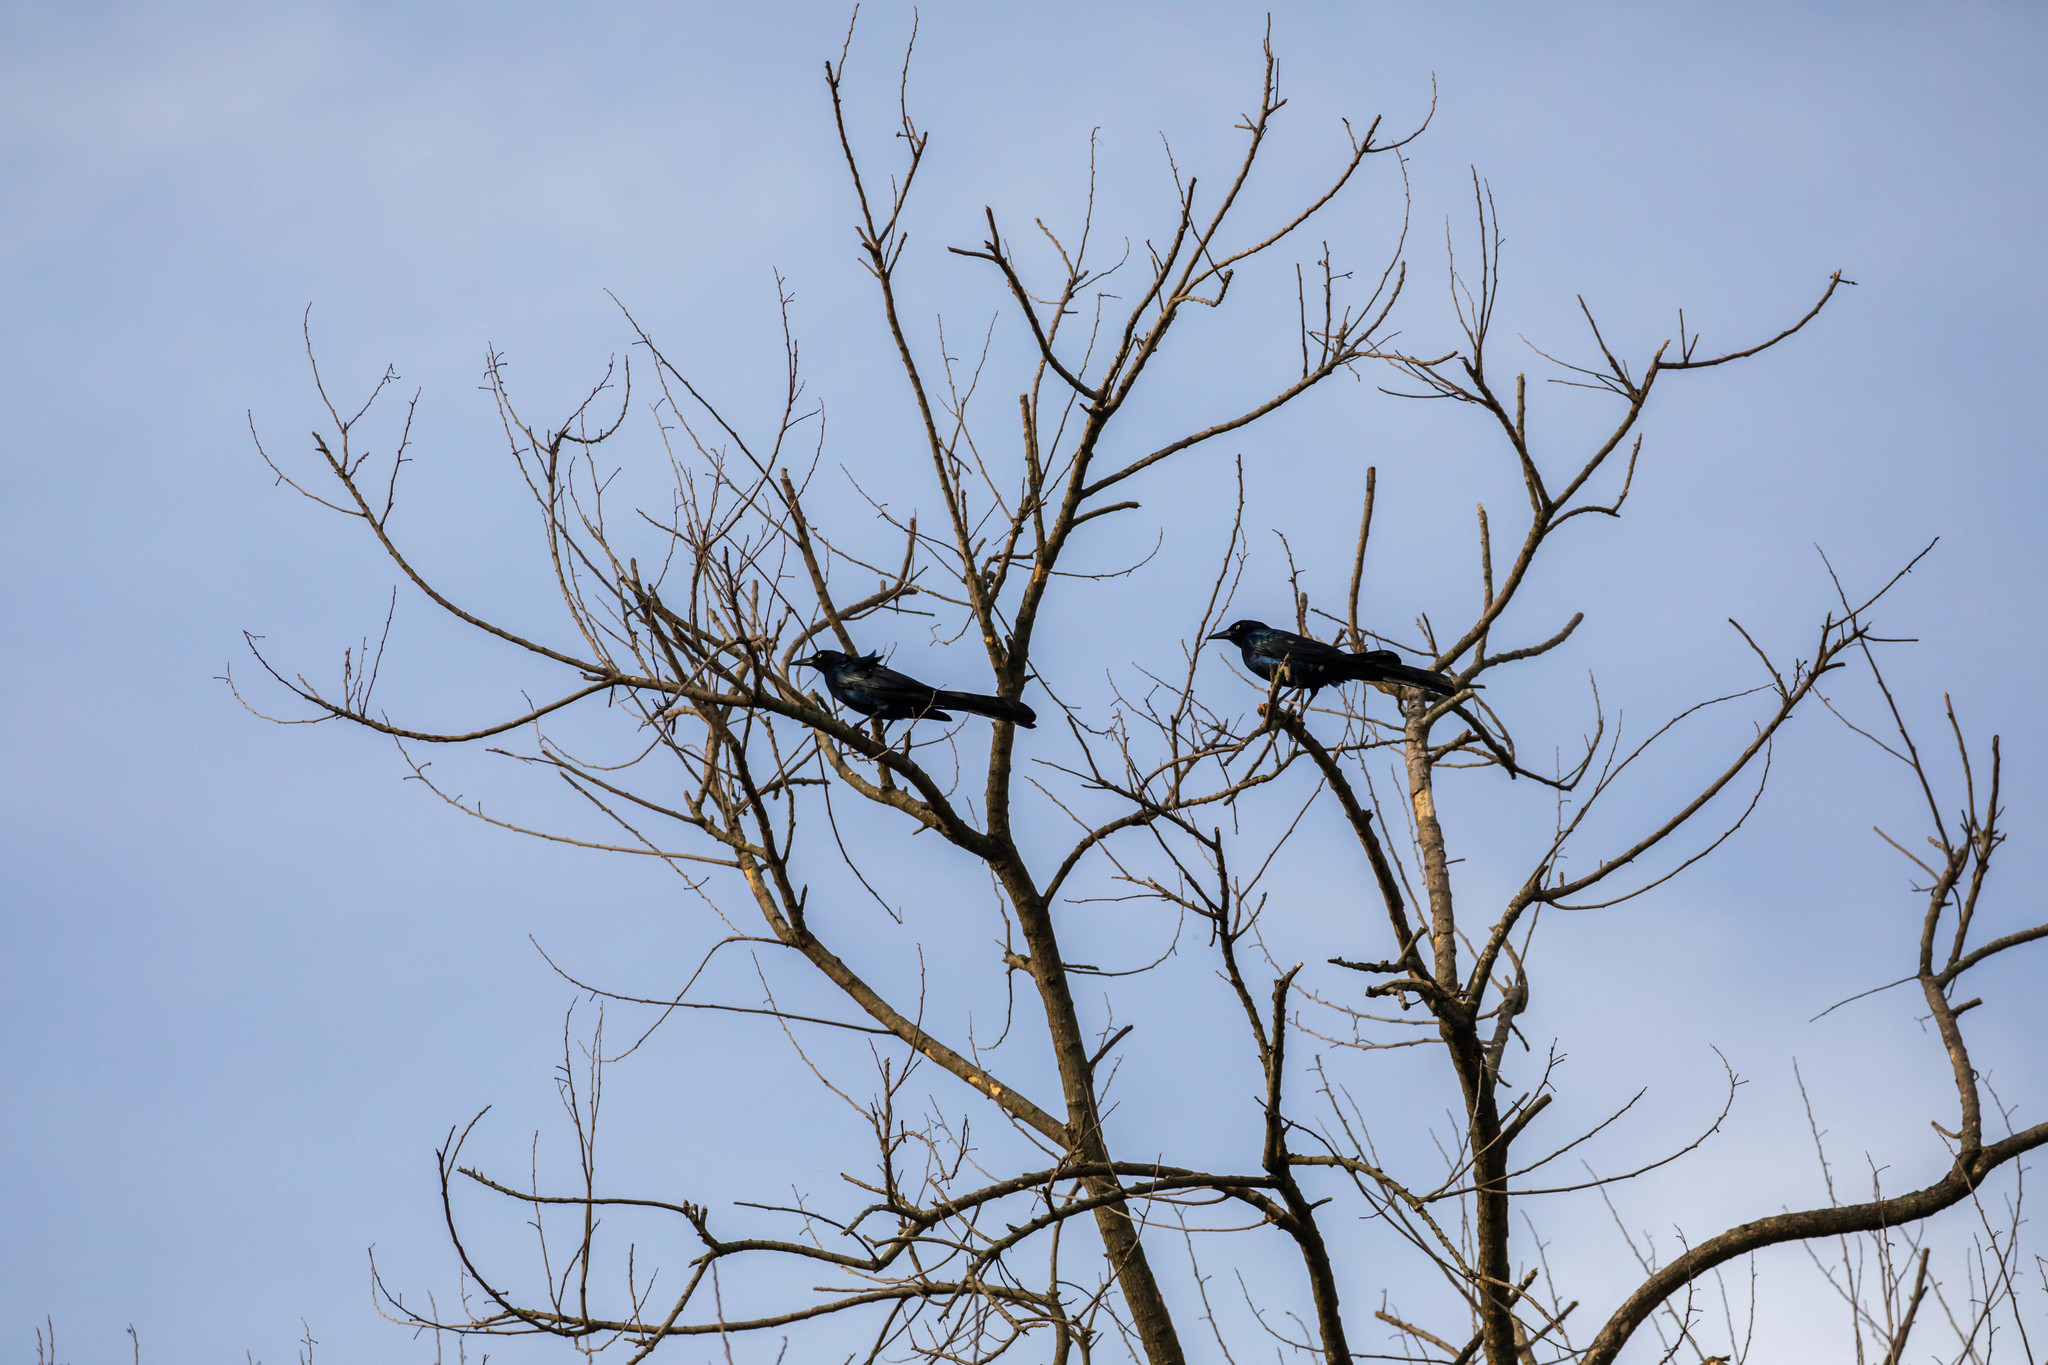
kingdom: Animalia
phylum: Chordata
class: Aves
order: Passeriformes
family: Icteridae
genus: Quiscalus
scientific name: Quiscalus mexicanus
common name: Great-tailed grackle
